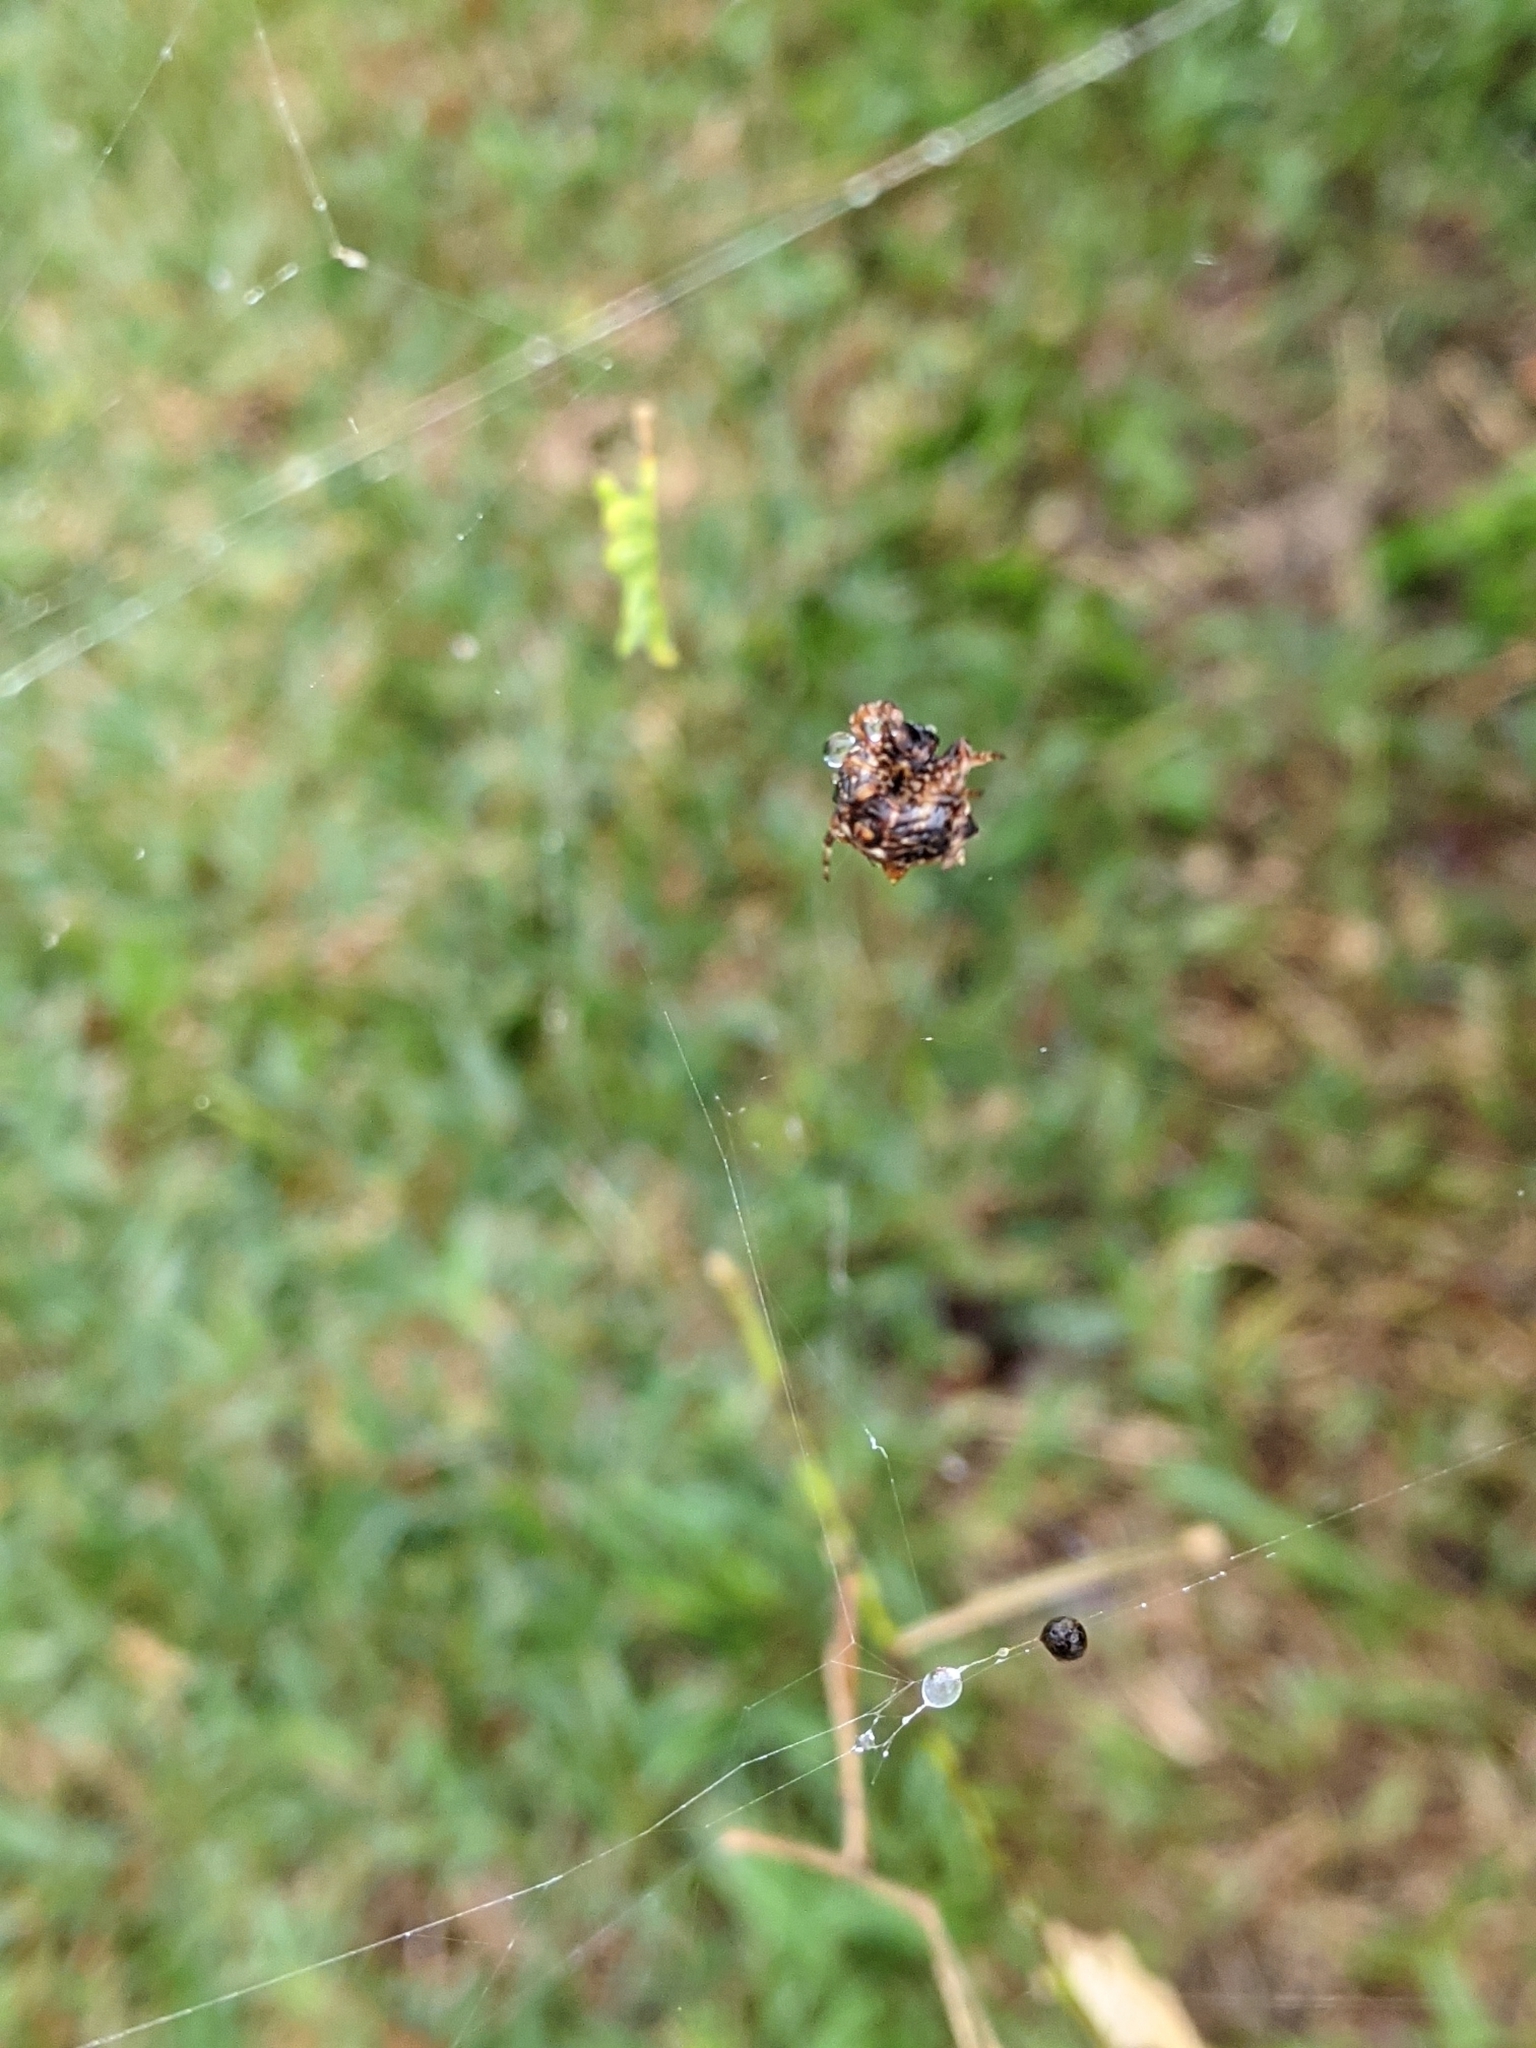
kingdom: Animalia
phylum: Arthropoda
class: Arachnida
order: Araneae
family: Araneidae
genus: Thelacantha
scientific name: Thelacantha brevispina
